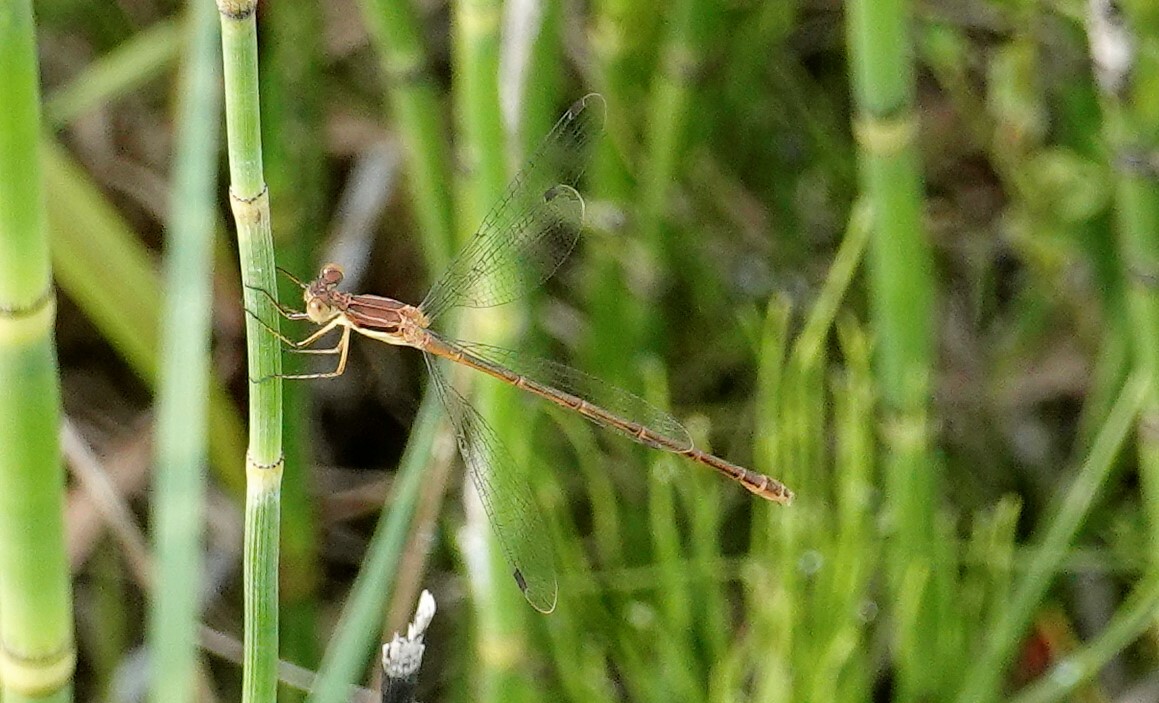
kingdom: Animalia
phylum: Arthropoda
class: Insecta
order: Odonata
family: Lestidae
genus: Lestes
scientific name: Lestes rectangularis
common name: Slender spreadwing
